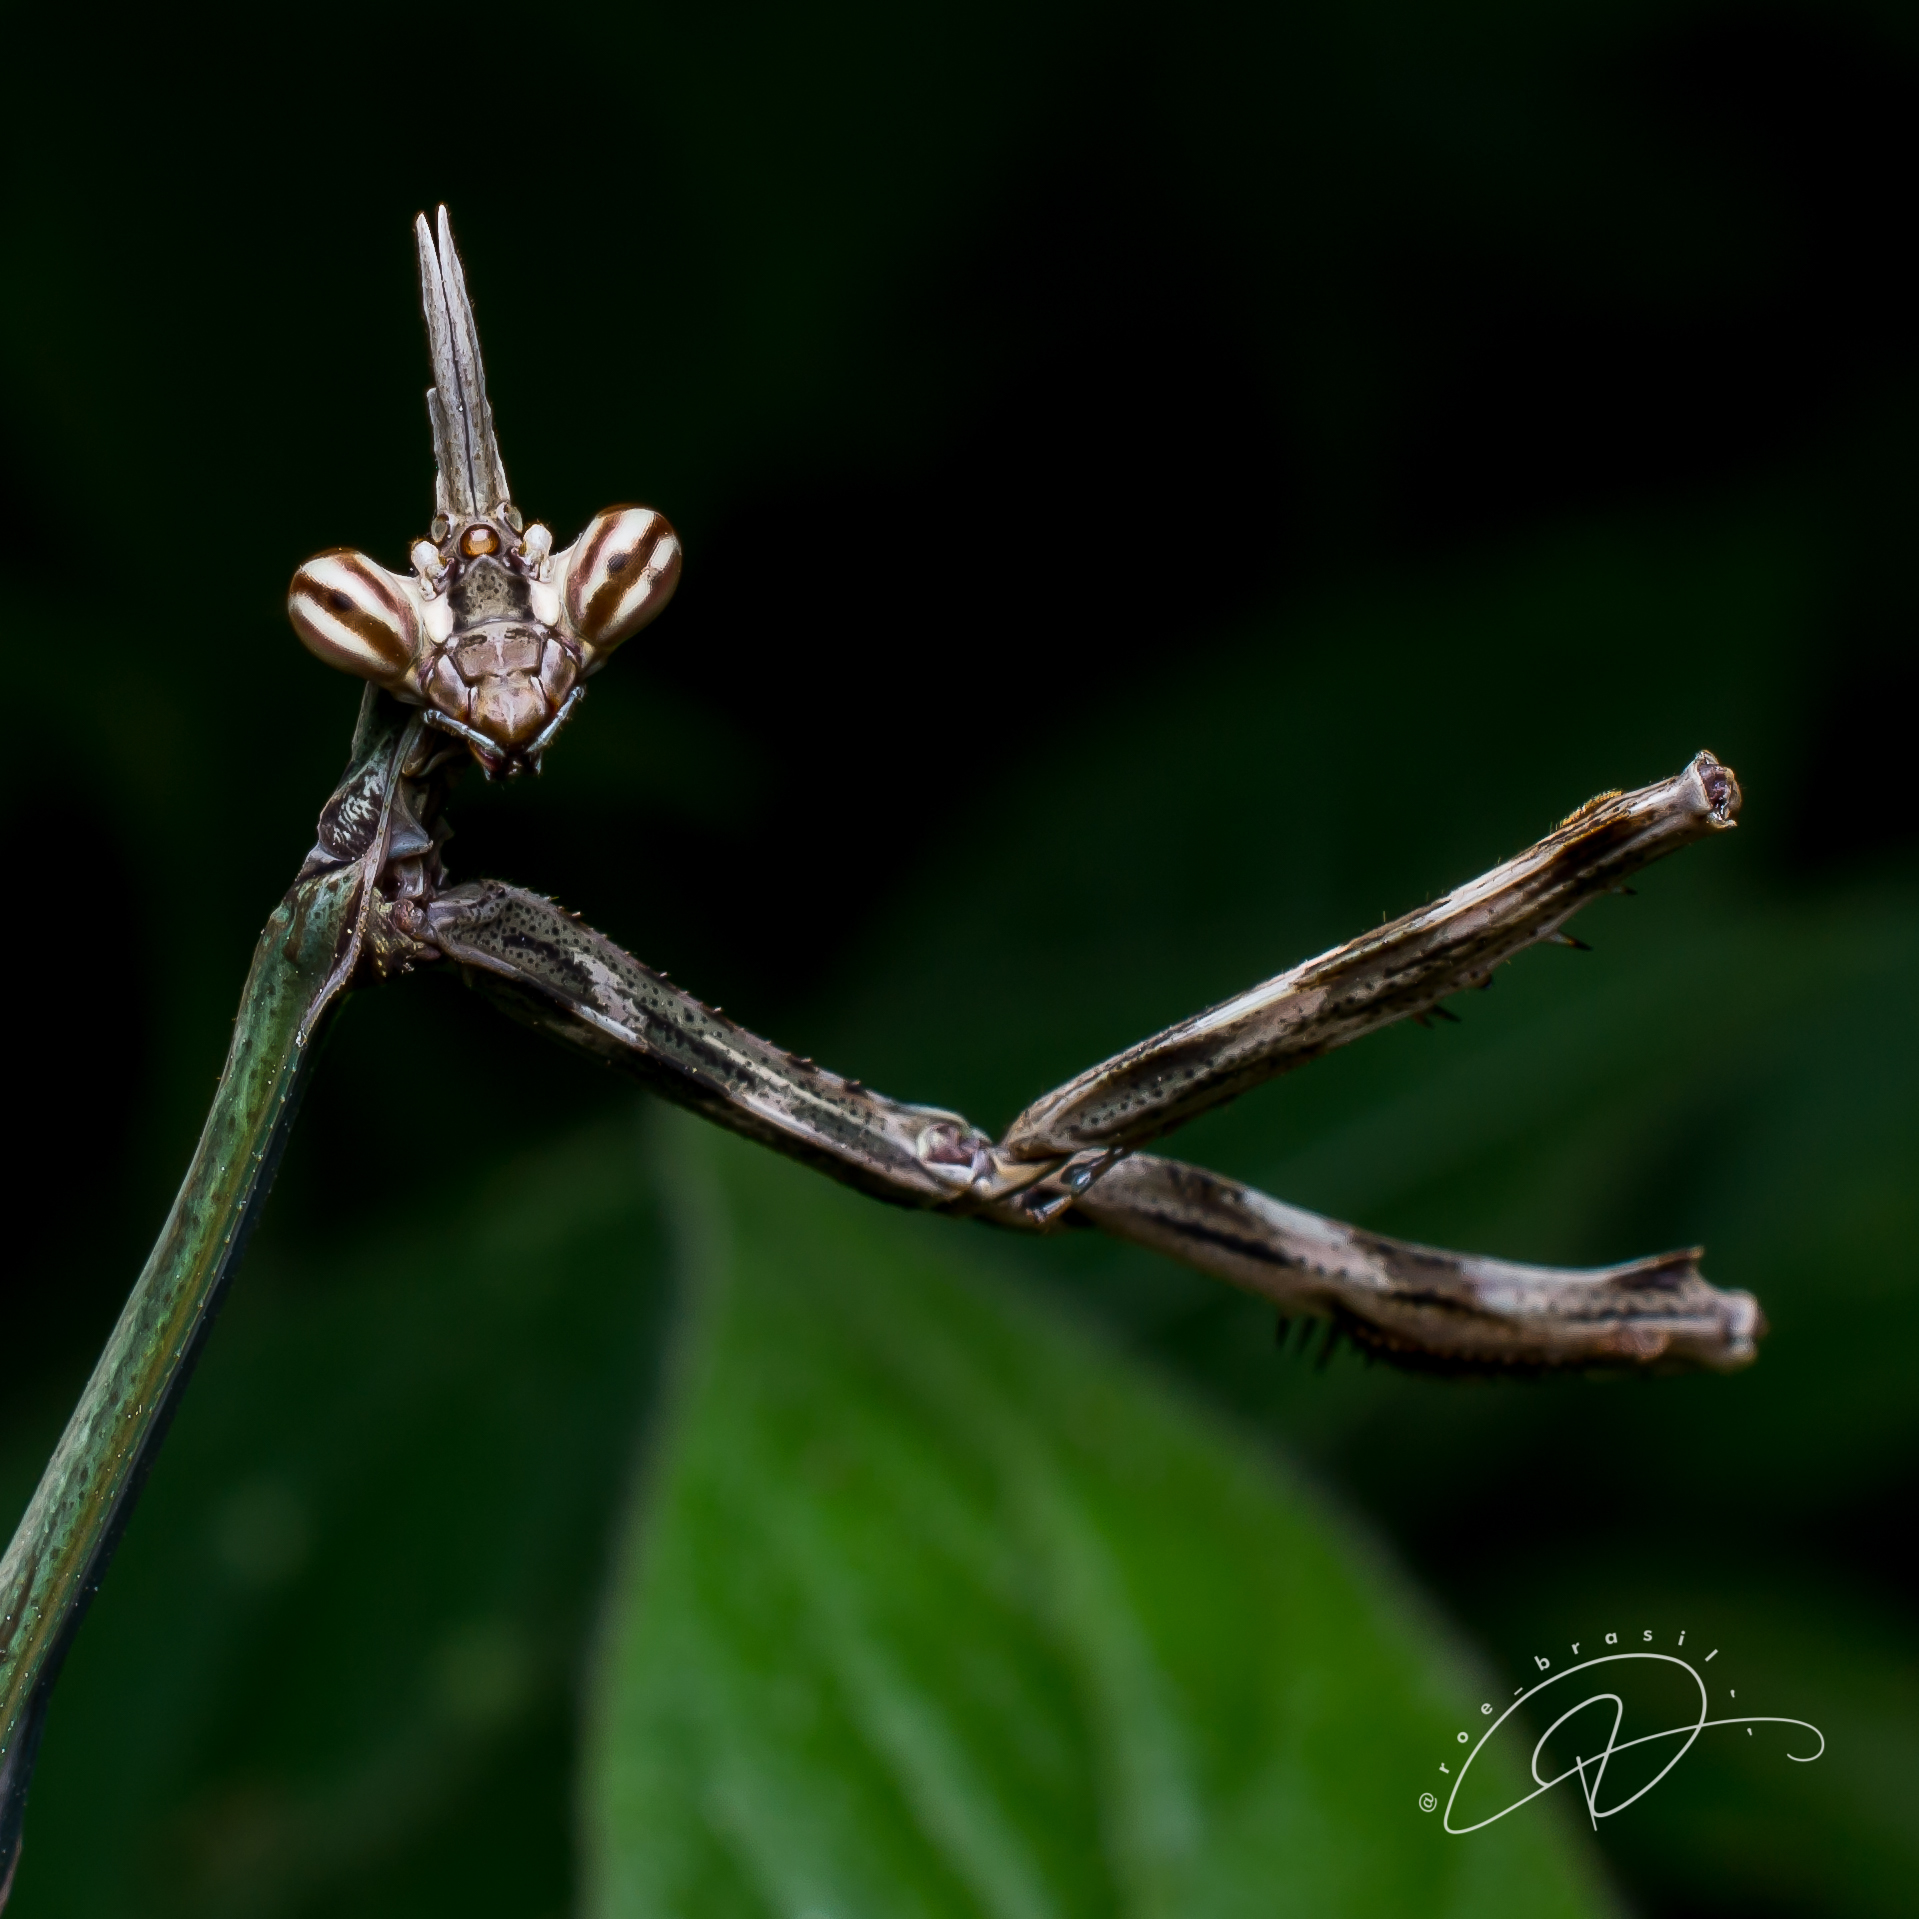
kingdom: Animalia
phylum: Arthropoda
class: Insecta
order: Mantodea
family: Mantidae
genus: Zoolea
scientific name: Zoolea minor
